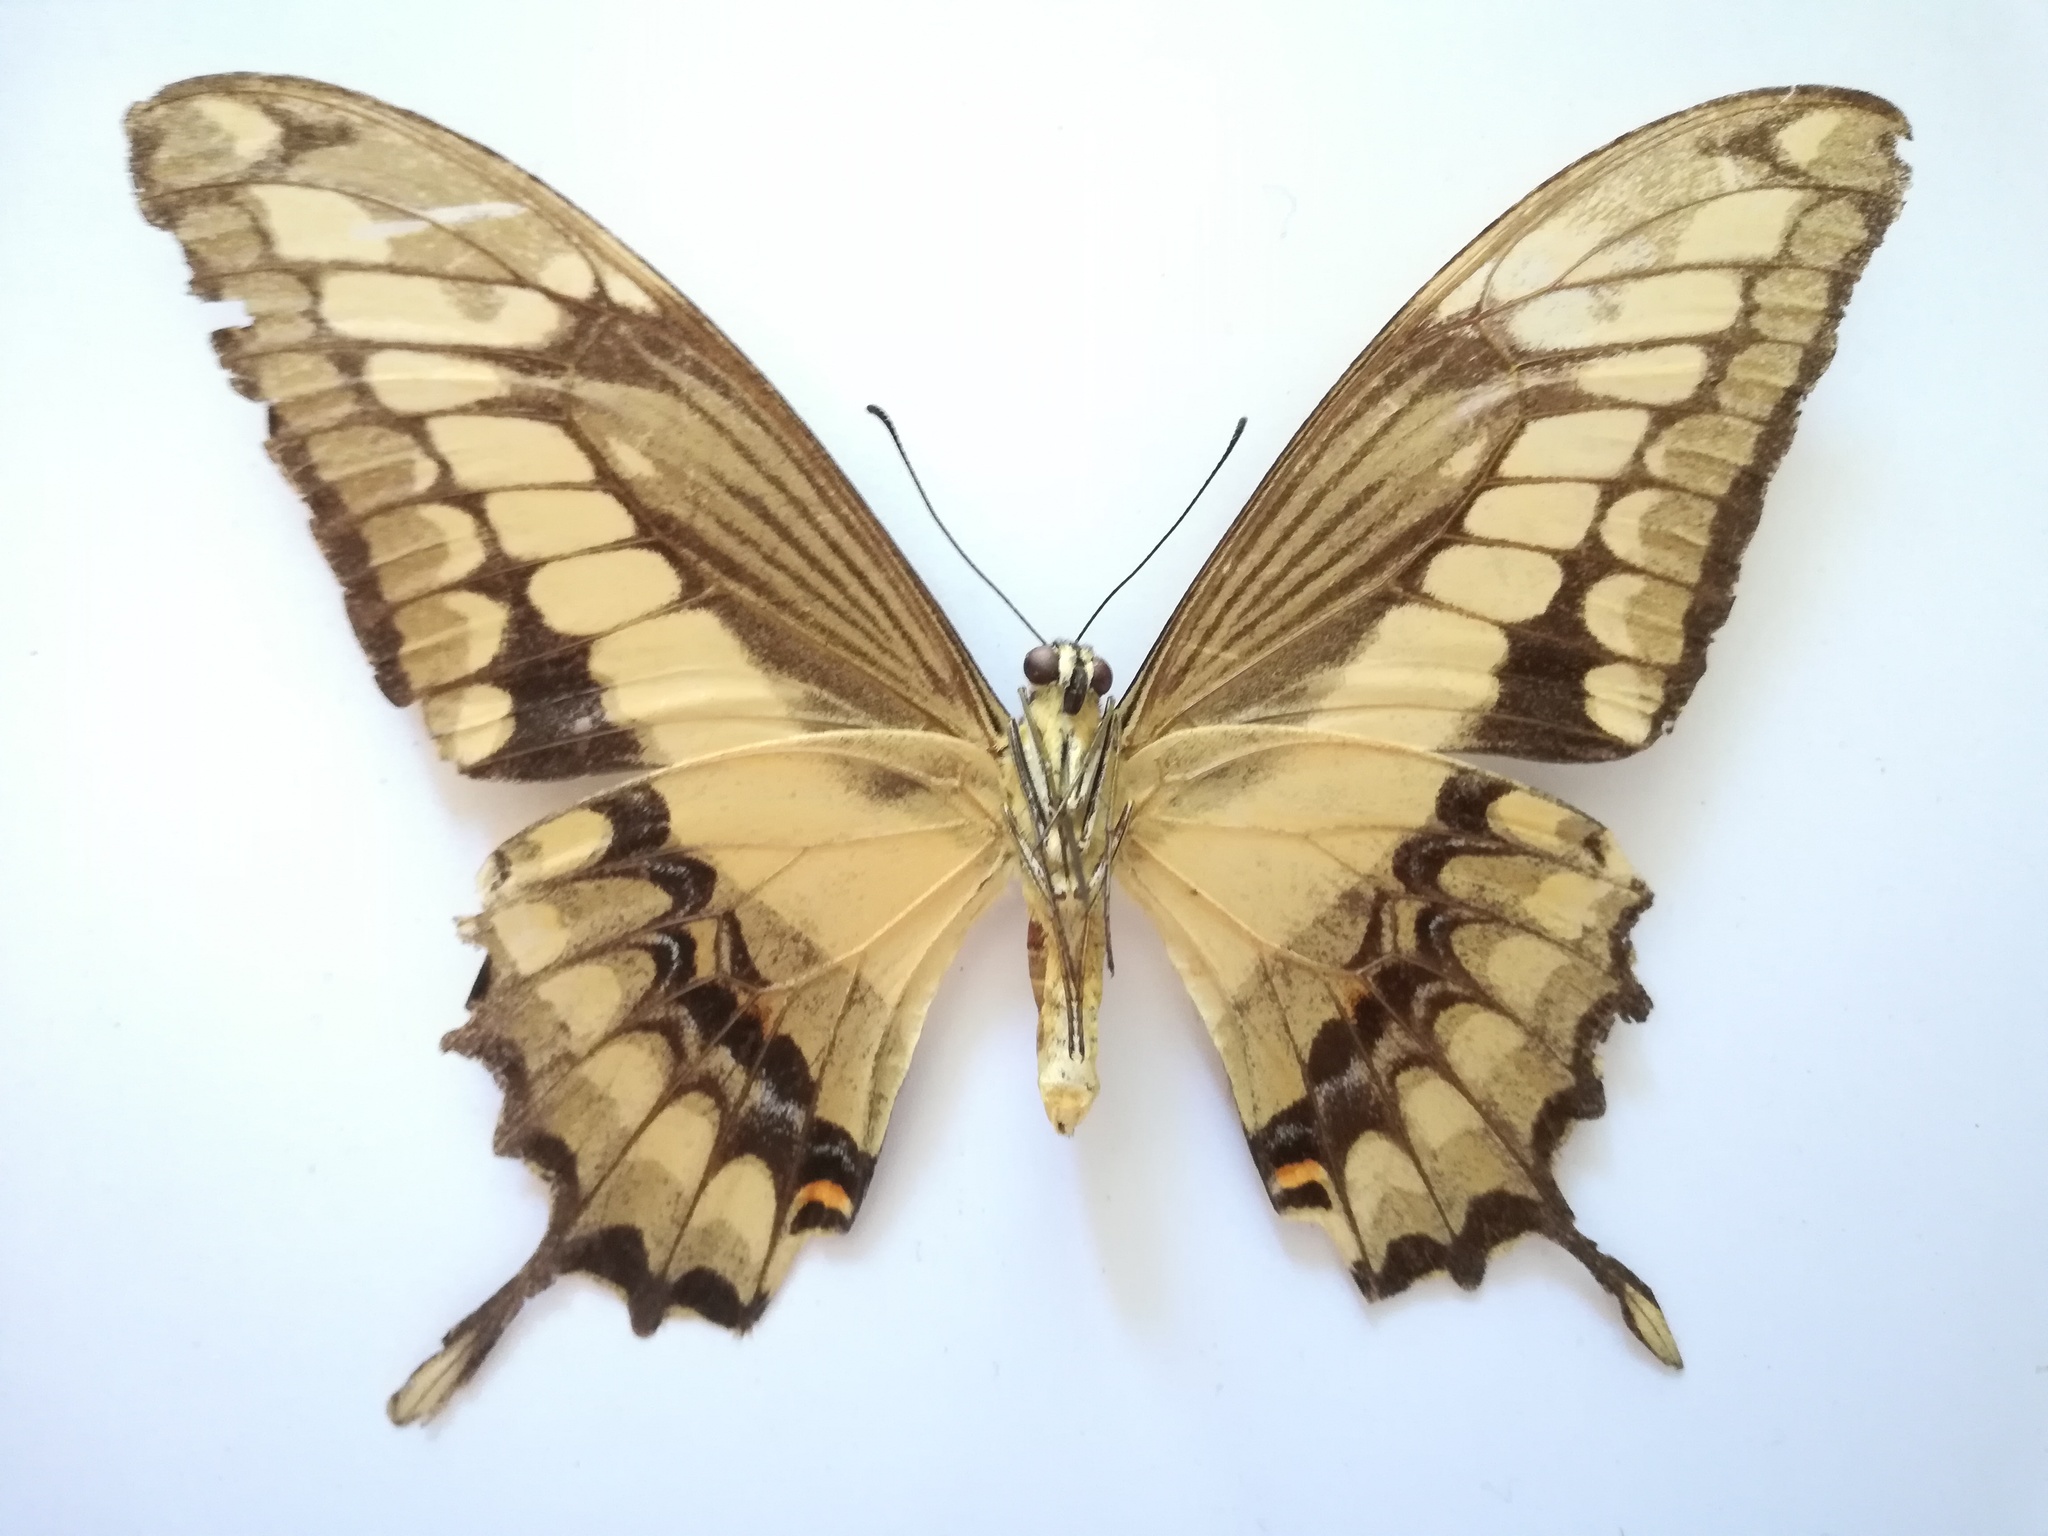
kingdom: Animalia
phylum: Arthropoda
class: Insecta
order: Lepidoptera
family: Papilionidae
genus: Papilio
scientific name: Papilio thoas
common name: King swallowtail
